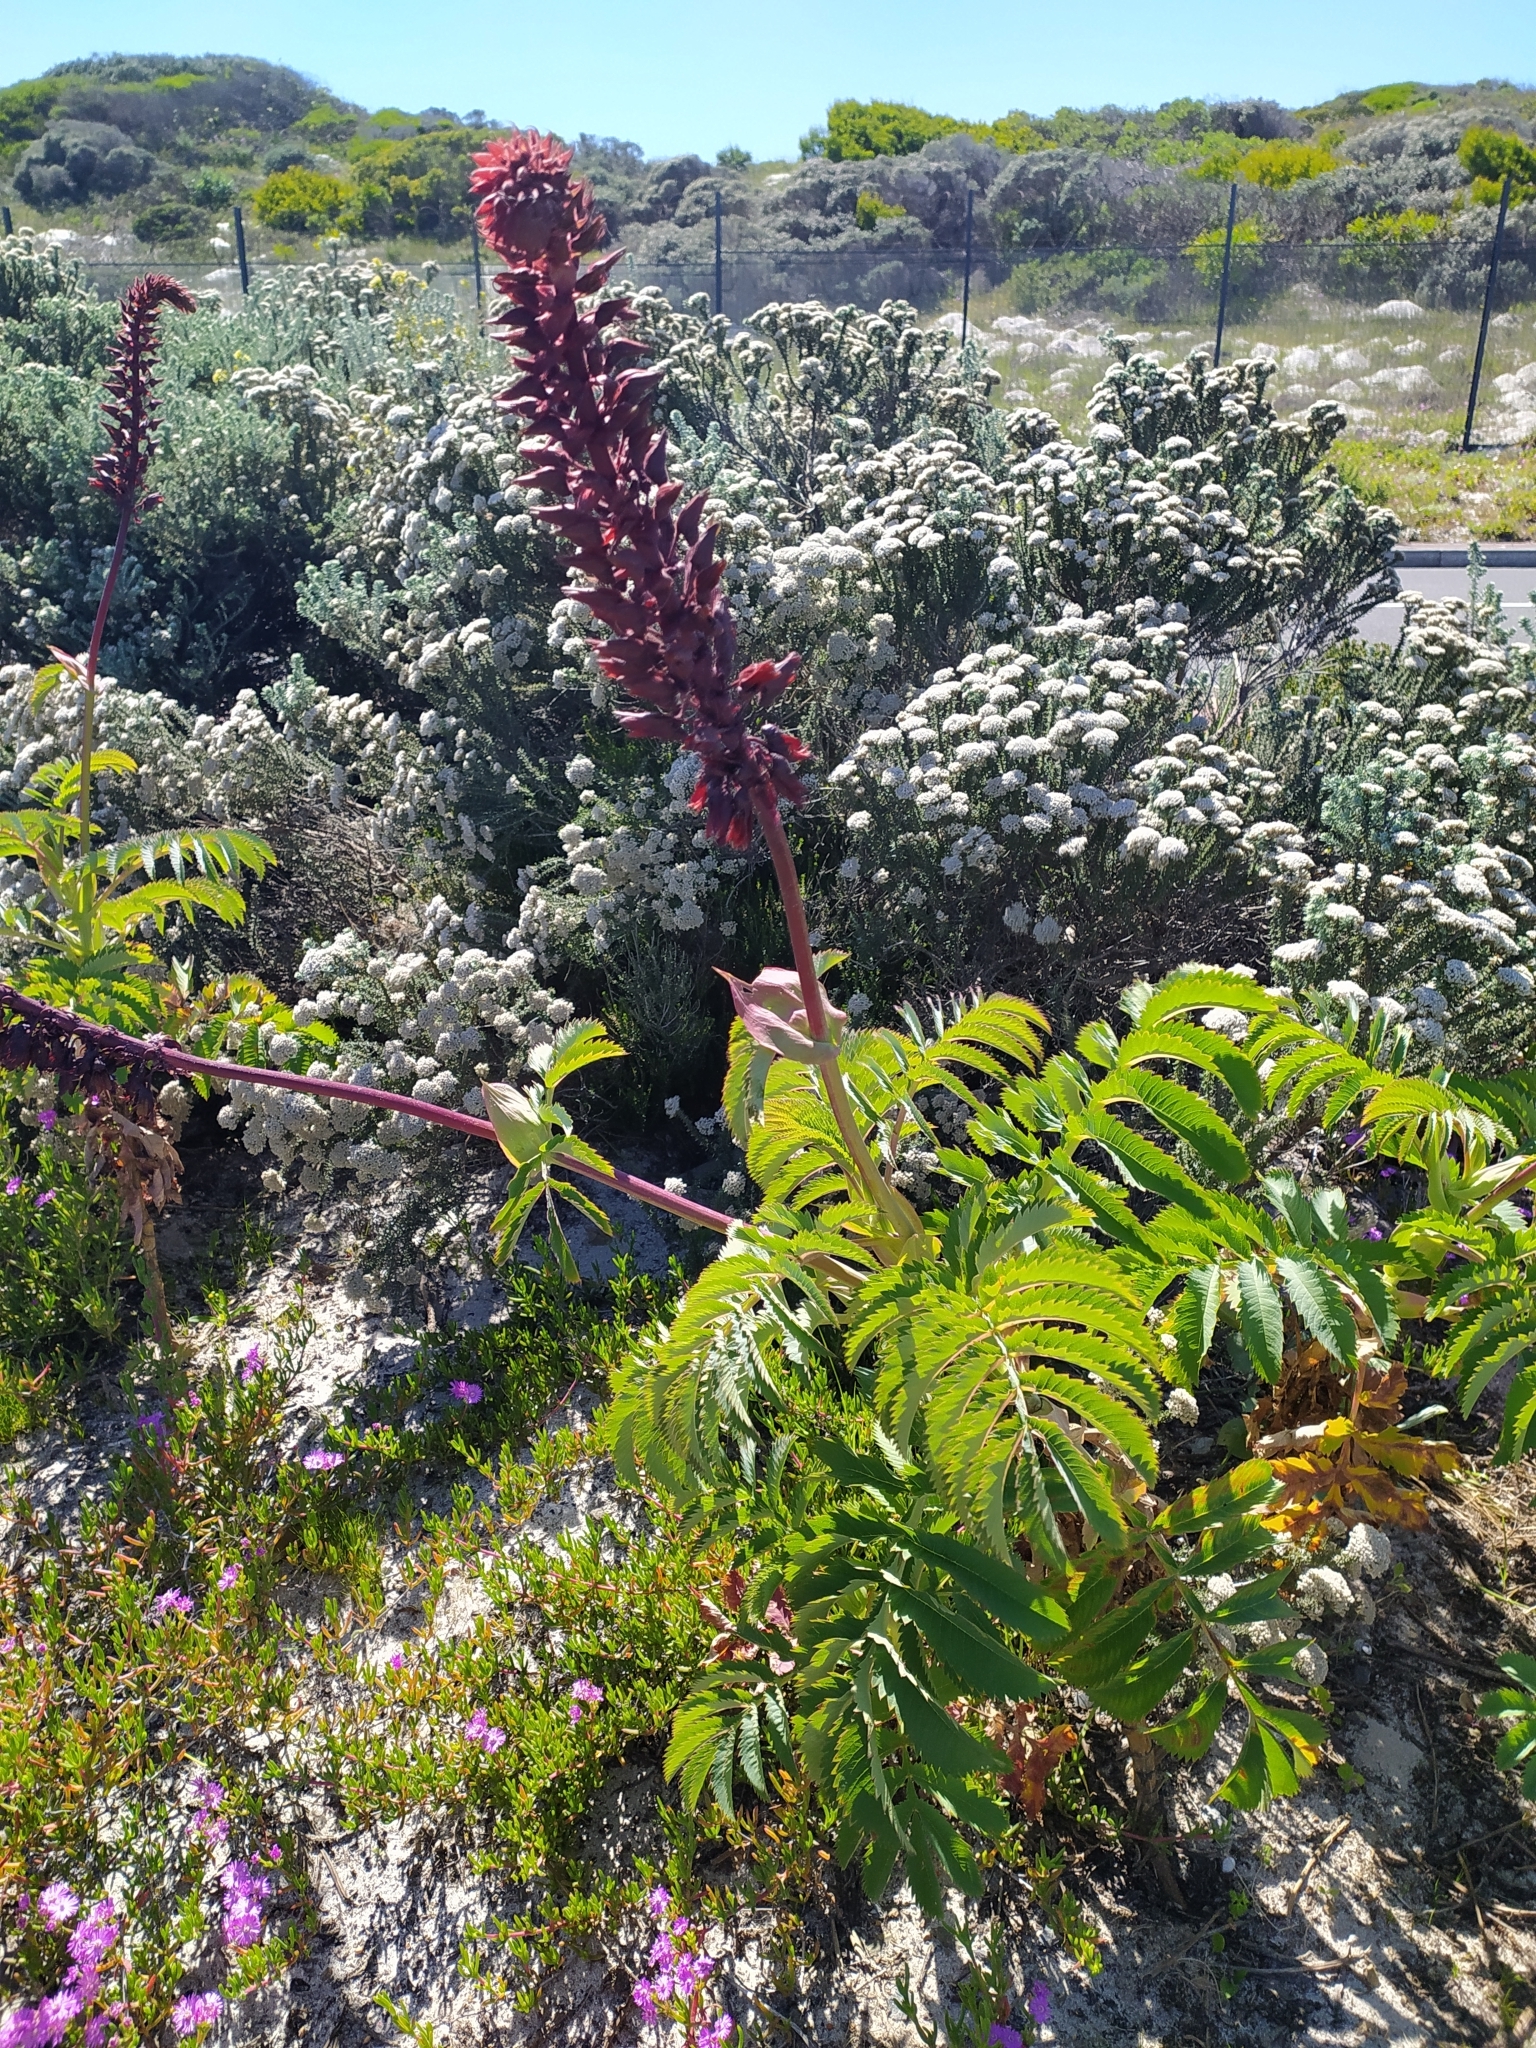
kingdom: Plantae
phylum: Tracheophyta
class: Magnoliopsida
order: Geraniales
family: Melianthaceae
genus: Melianthus
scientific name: Melianthus major
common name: Honey-flower
